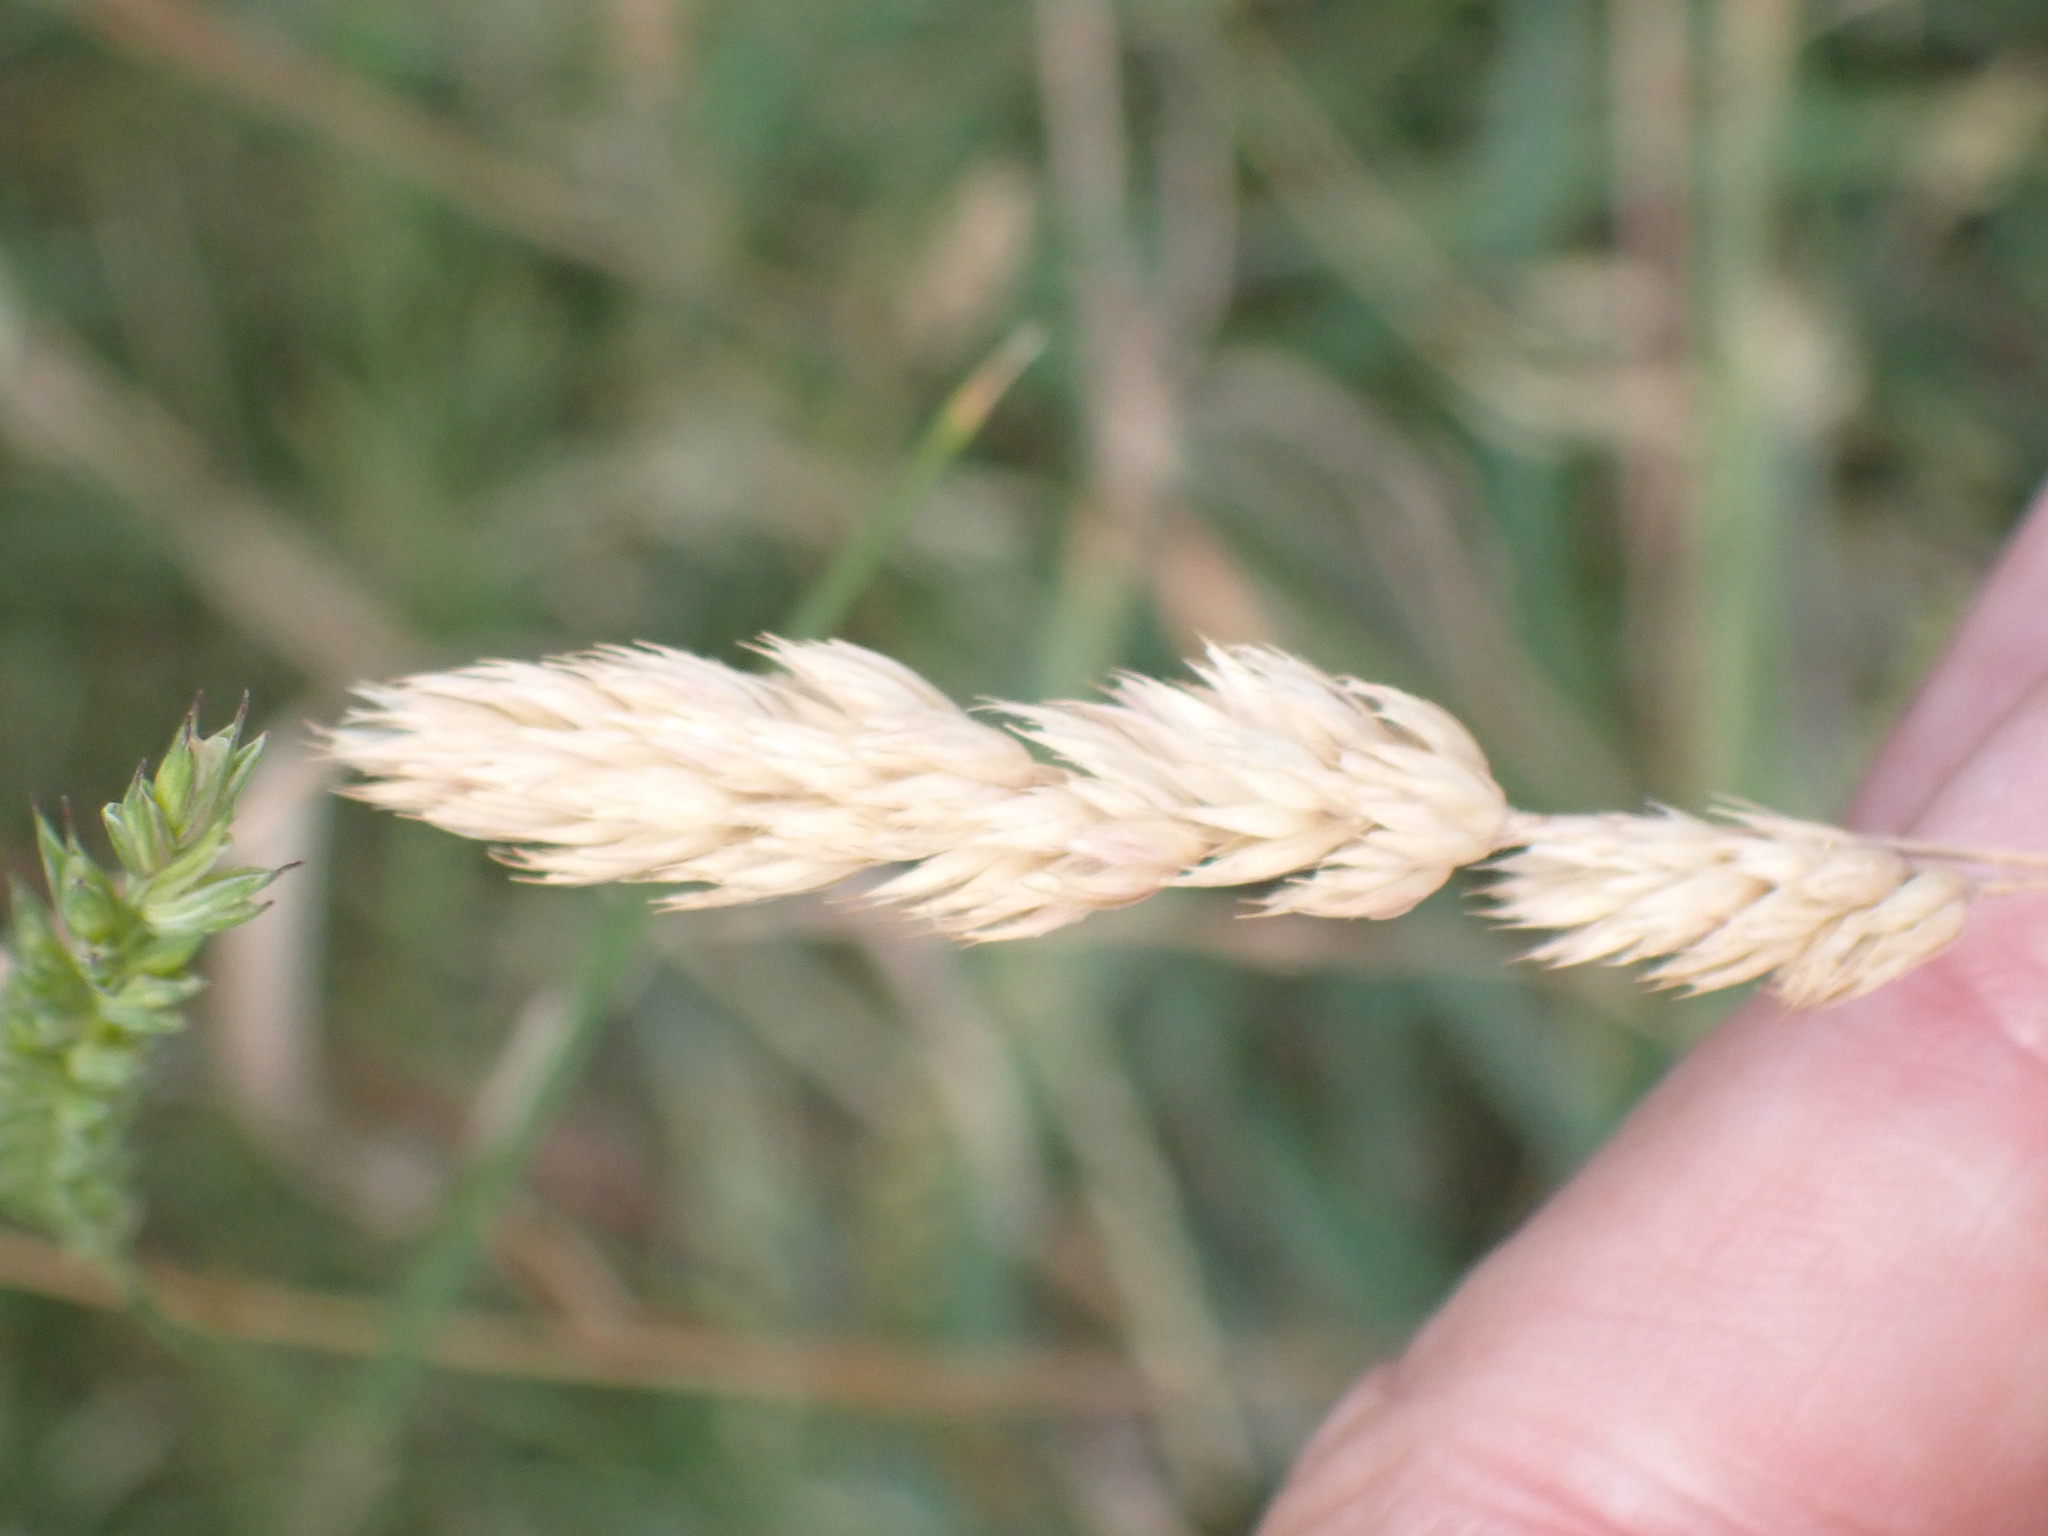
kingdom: Plantae
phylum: Tracheophyta
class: Liliopsida
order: Poales
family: Poaceae
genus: Dactylis
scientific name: Dactylis glomerata
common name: Orchardgrass
